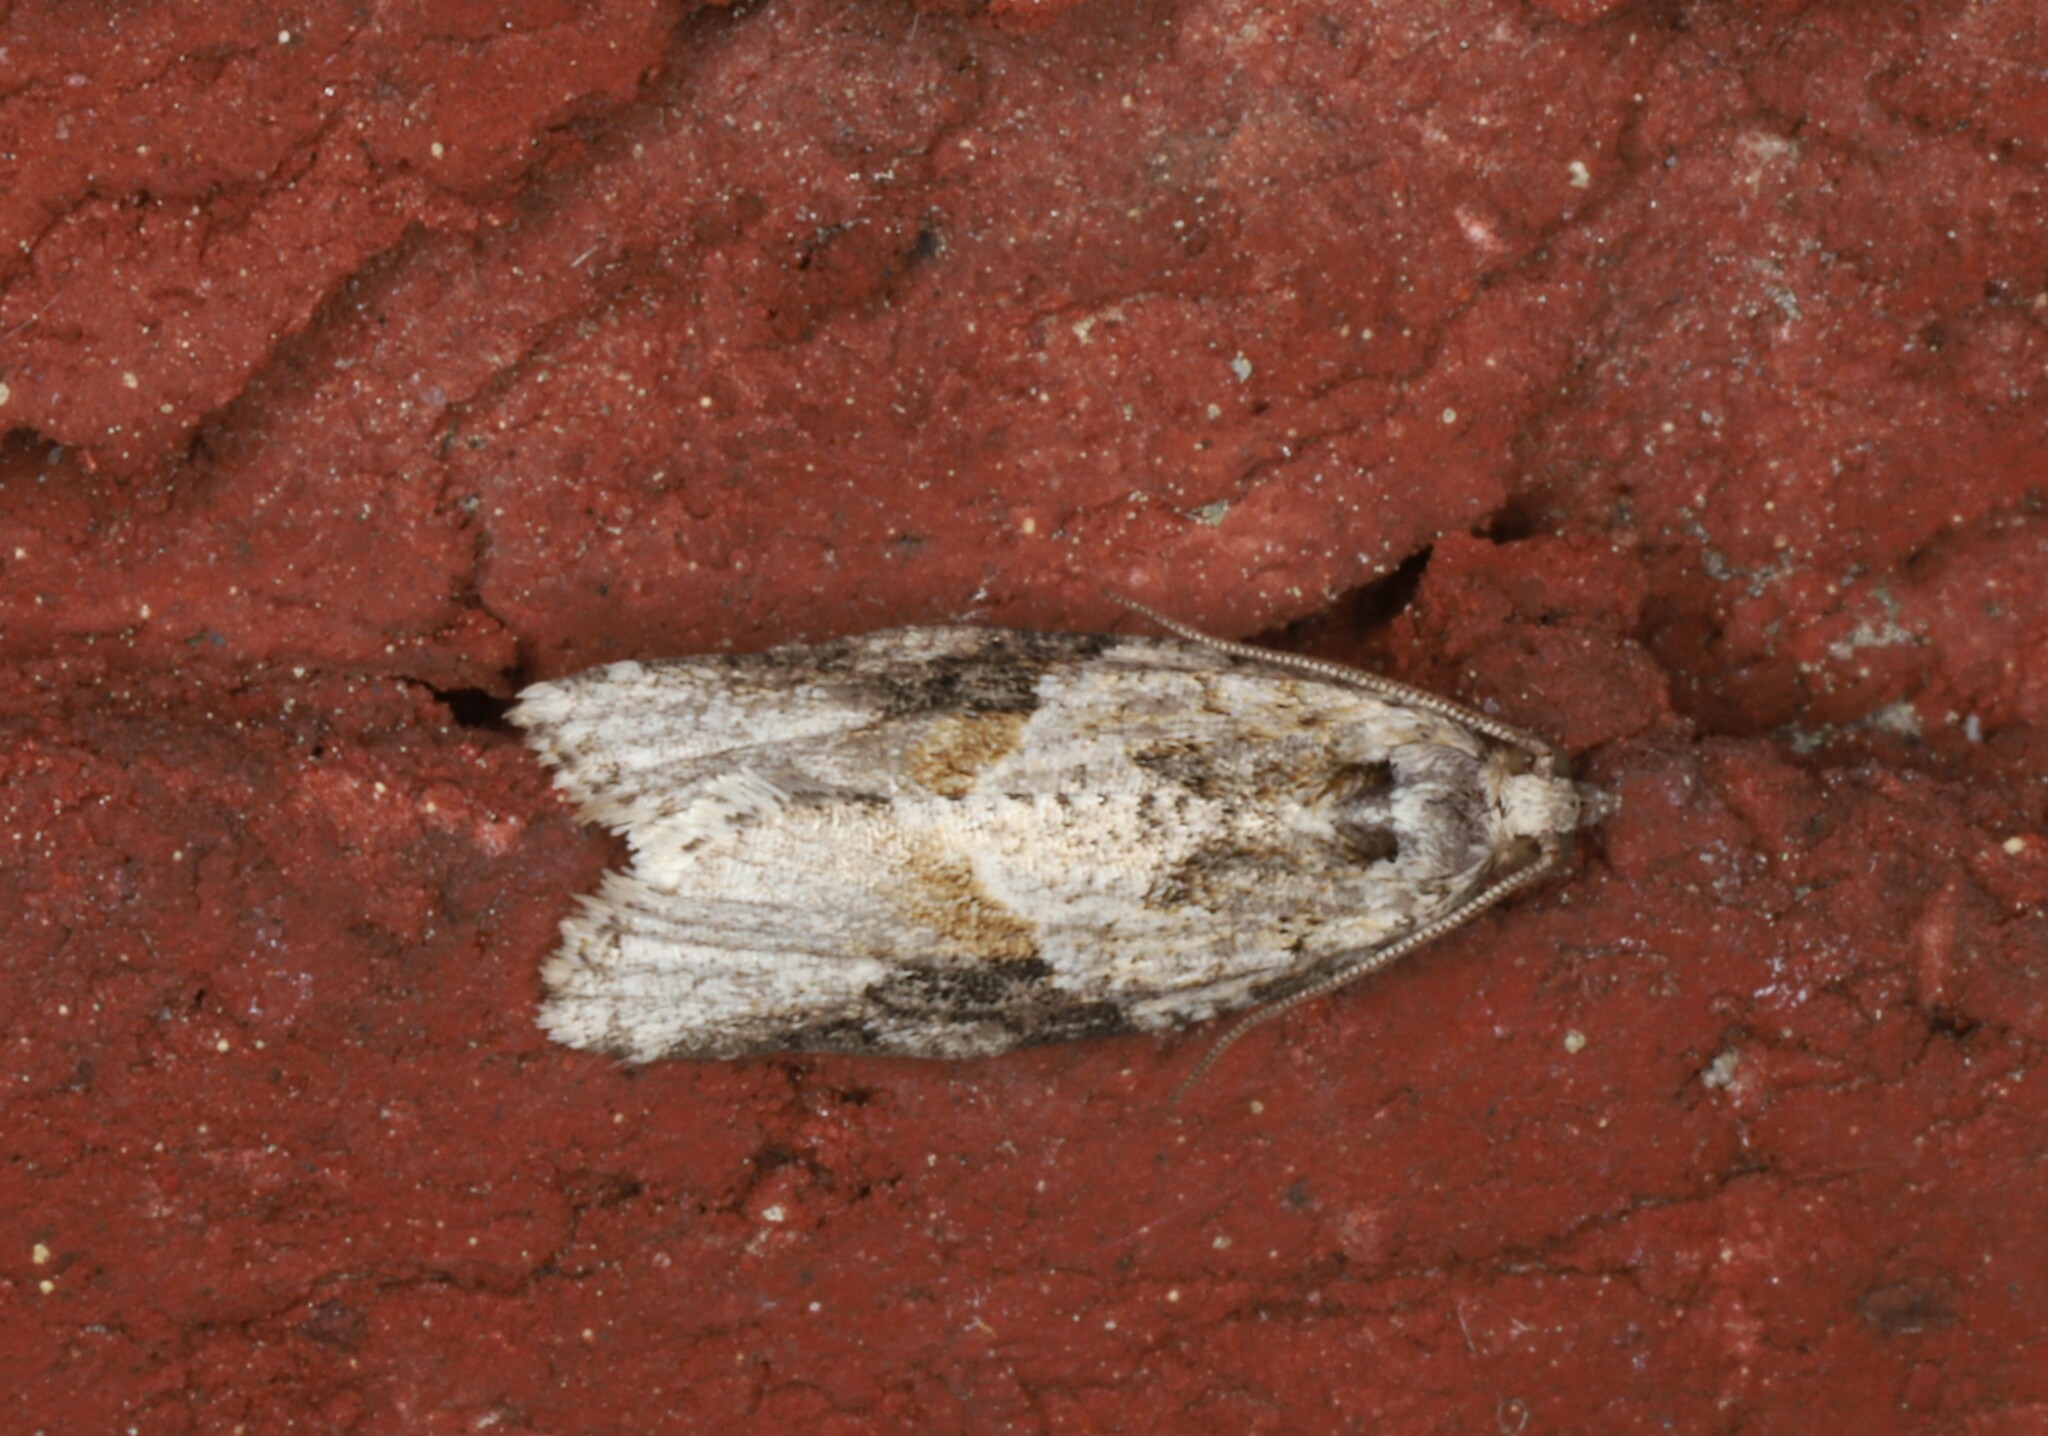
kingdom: Animalia
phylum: Arthropoda
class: Insecta
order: Lepidoptera
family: Tortricidae
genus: Argyrotaenia
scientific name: Argyrotaenia mariana
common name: Gray-banded leafroller moth
